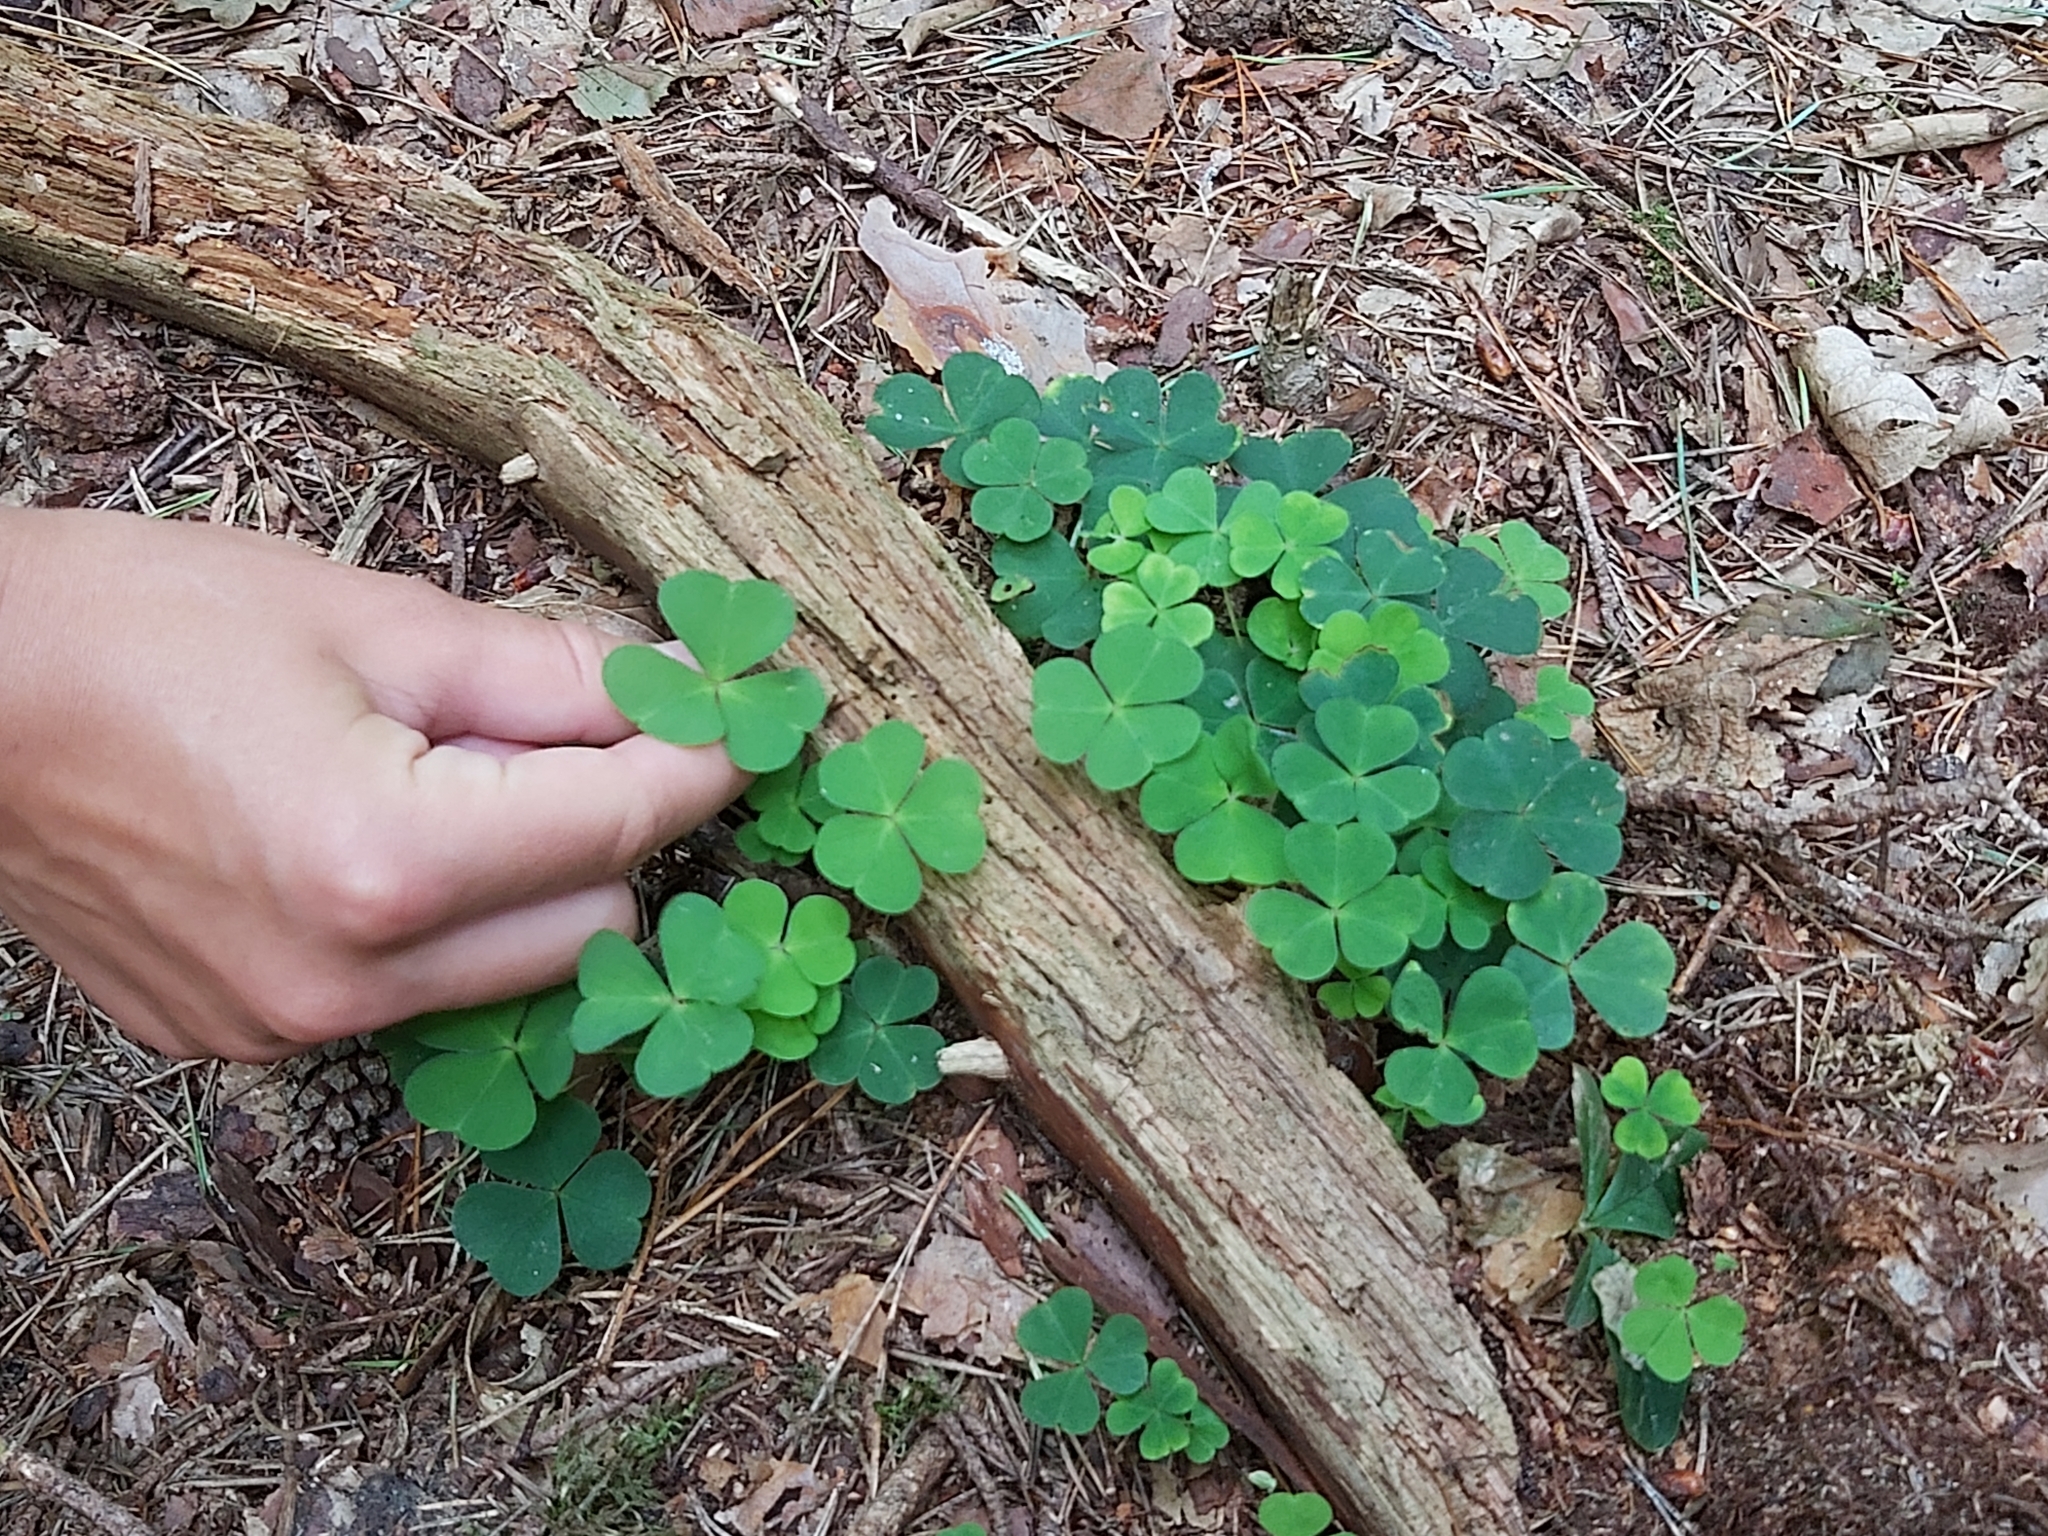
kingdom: Plantae
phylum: Tracheophyta
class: Magnoliopsida
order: Oxalidales
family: Oxalidaceae
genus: Oxalis
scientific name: Oxalis acetosella
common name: Wood-sorrel
